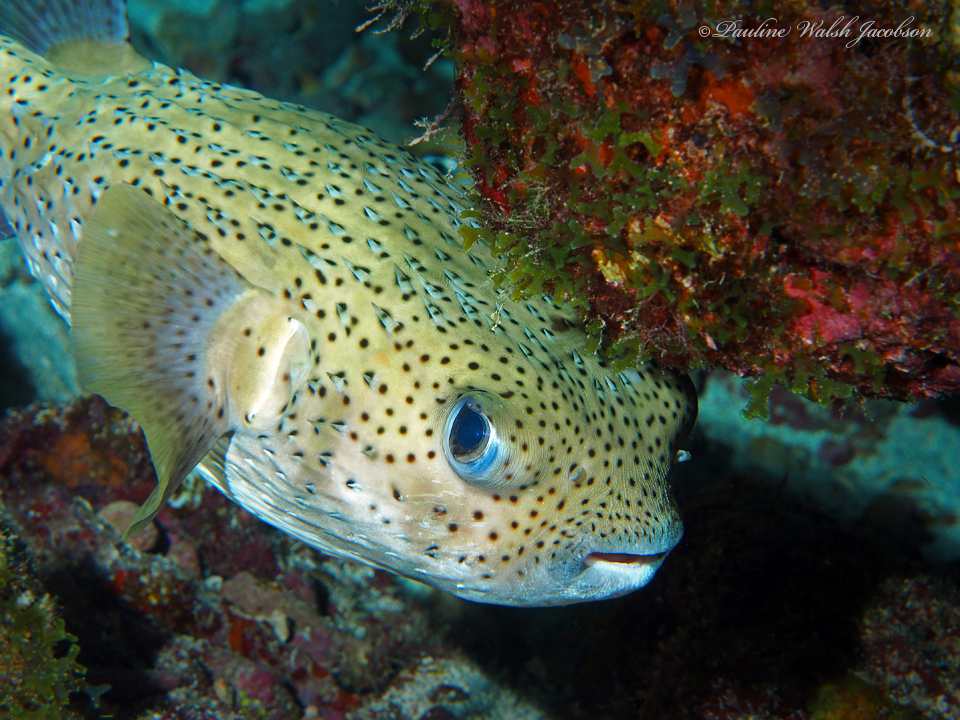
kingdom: Animalia
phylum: Chordata
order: Tetraodontiformes
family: Diodontidae
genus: Diodon
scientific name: Diodon hystrix
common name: Giant porcupinefish
